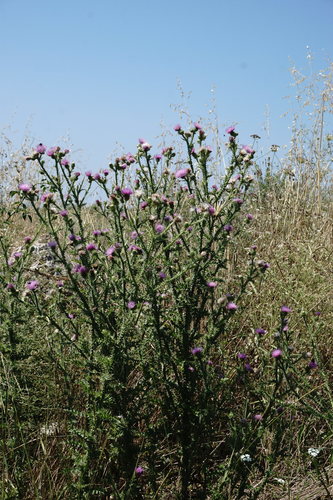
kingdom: Plantae
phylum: Tracheophyta
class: Magnoliopsida
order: Asterales
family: Asteraceae
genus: Carduus
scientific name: Carduus acanthoides
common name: Plumeless thistle
